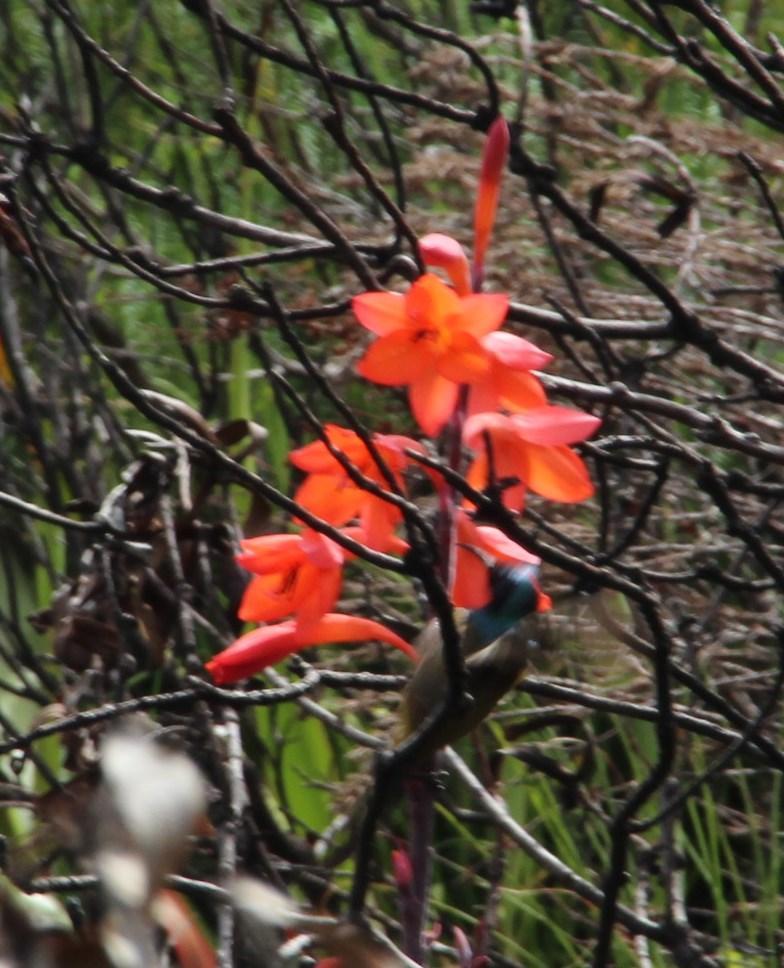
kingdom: Animalia
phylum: Chordata
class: Aves
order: Passeriformes
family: Nectariniidae
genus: Anthobaphes
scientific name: Anthobaphes violacea
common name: Orange-breasted sunbird
